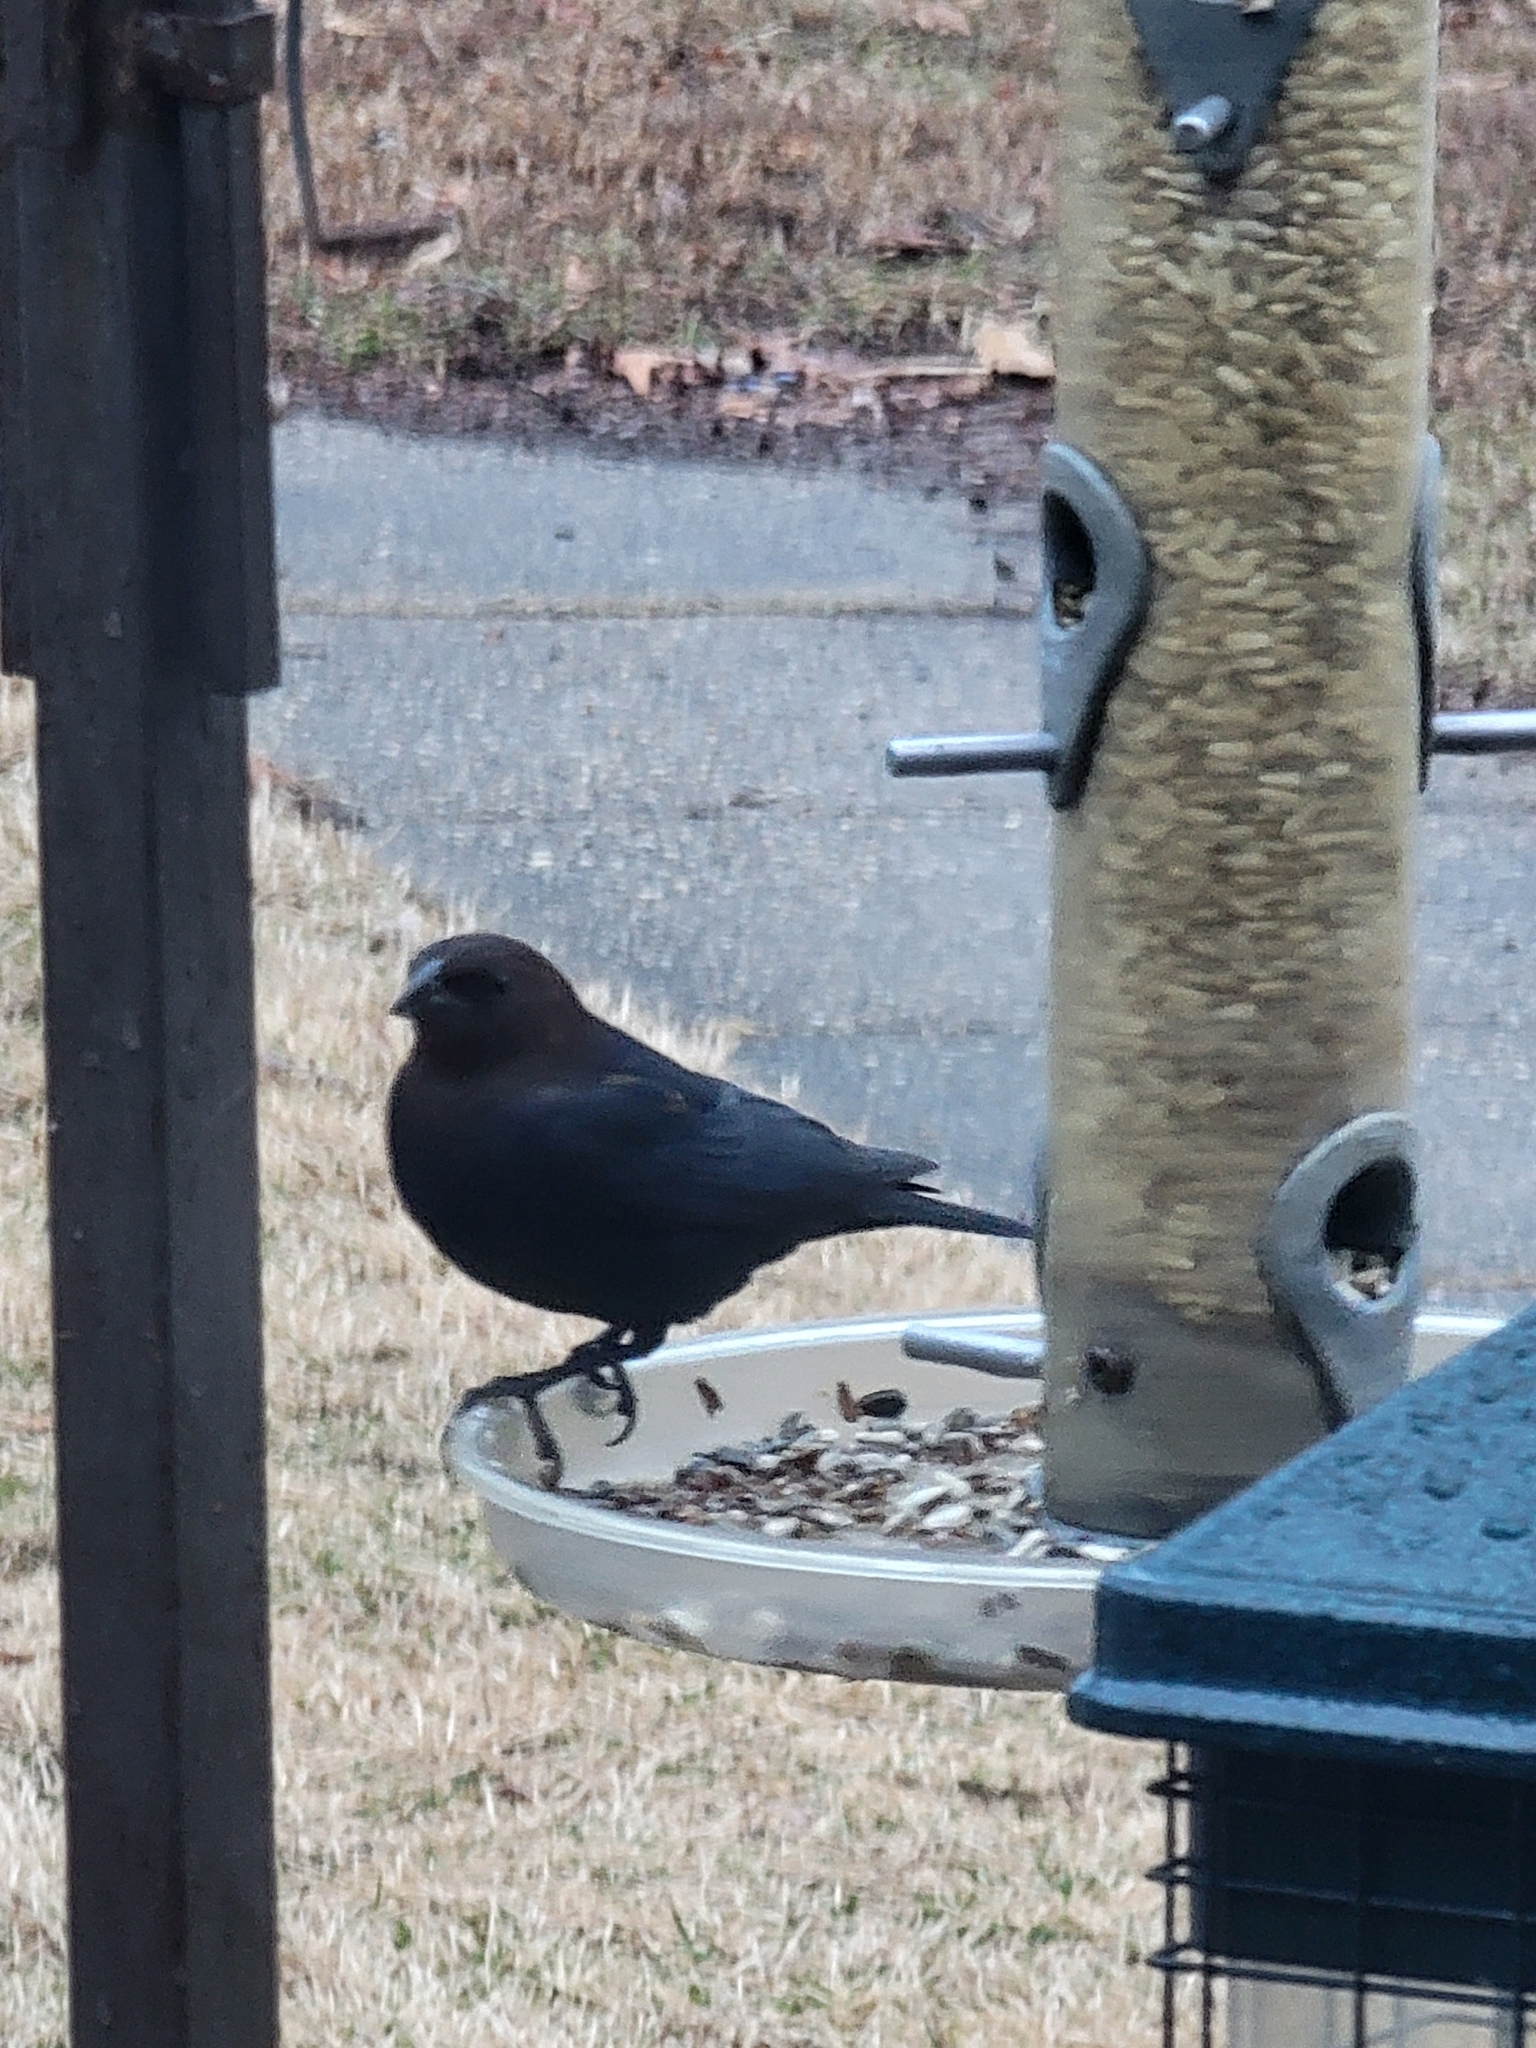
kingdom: Animalia
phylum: Chordata
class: Aves
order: Passeriformes
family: Icteridae
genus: Molothrus
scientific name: Molothrus ater
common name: Brown-headed cowbird
